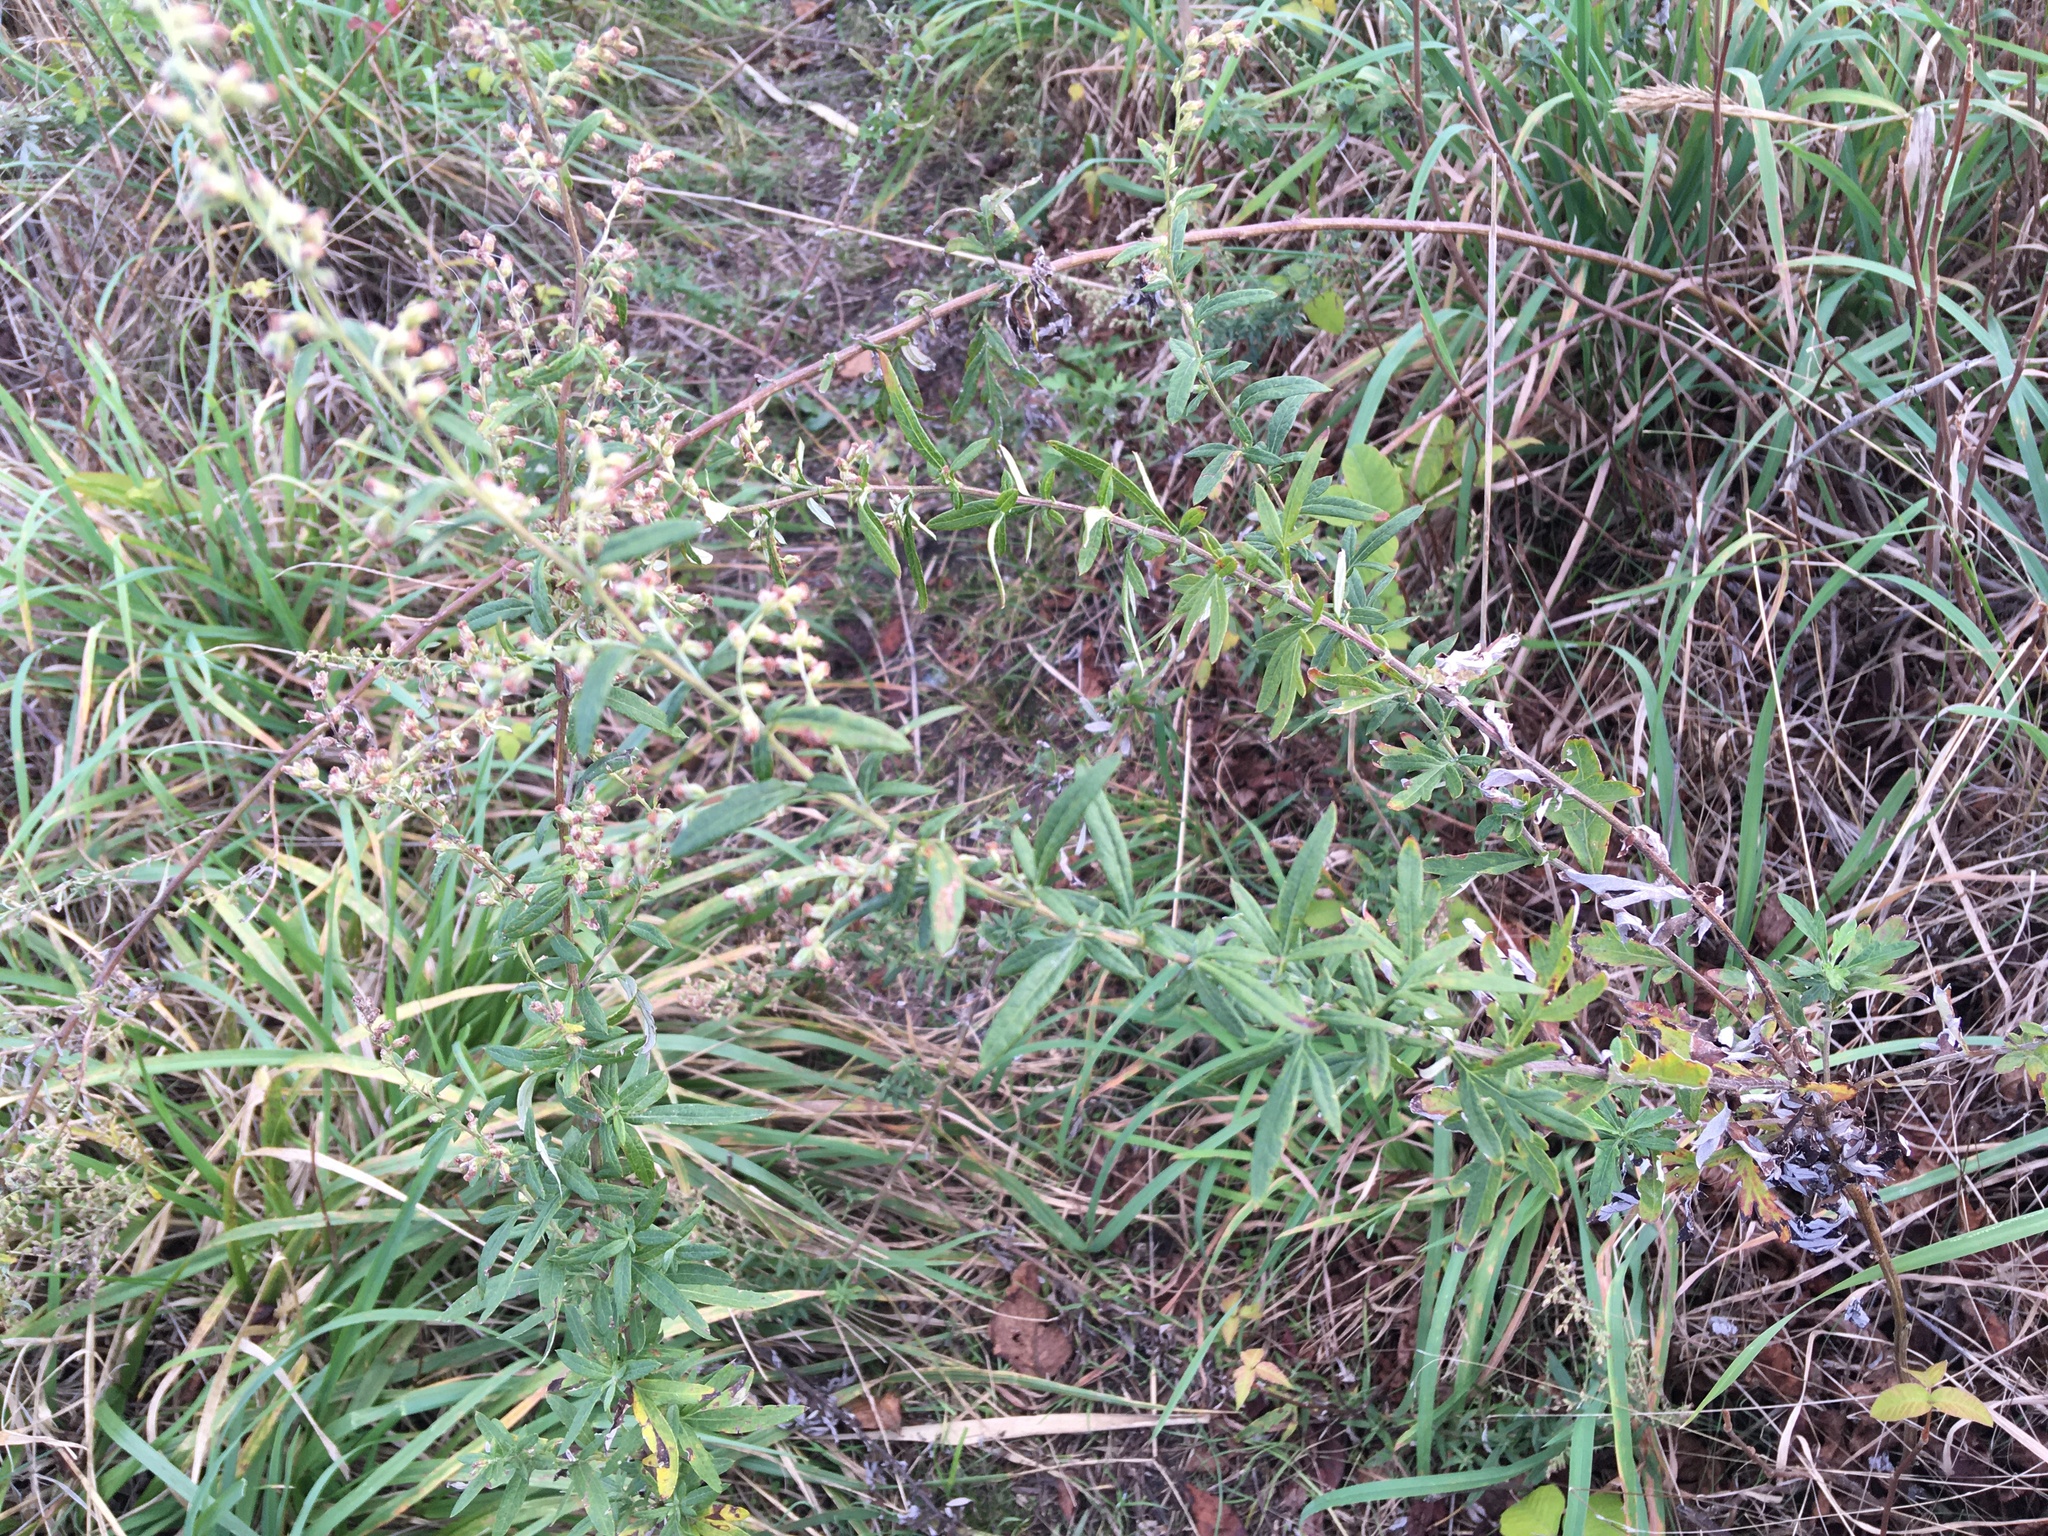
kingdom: Plantae
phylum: Tracheophyta
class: Magnoliopsida
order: Asterales
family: Asteraceae
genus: Artemisia
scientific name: Artemisia vulgaris
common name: Mugwort
